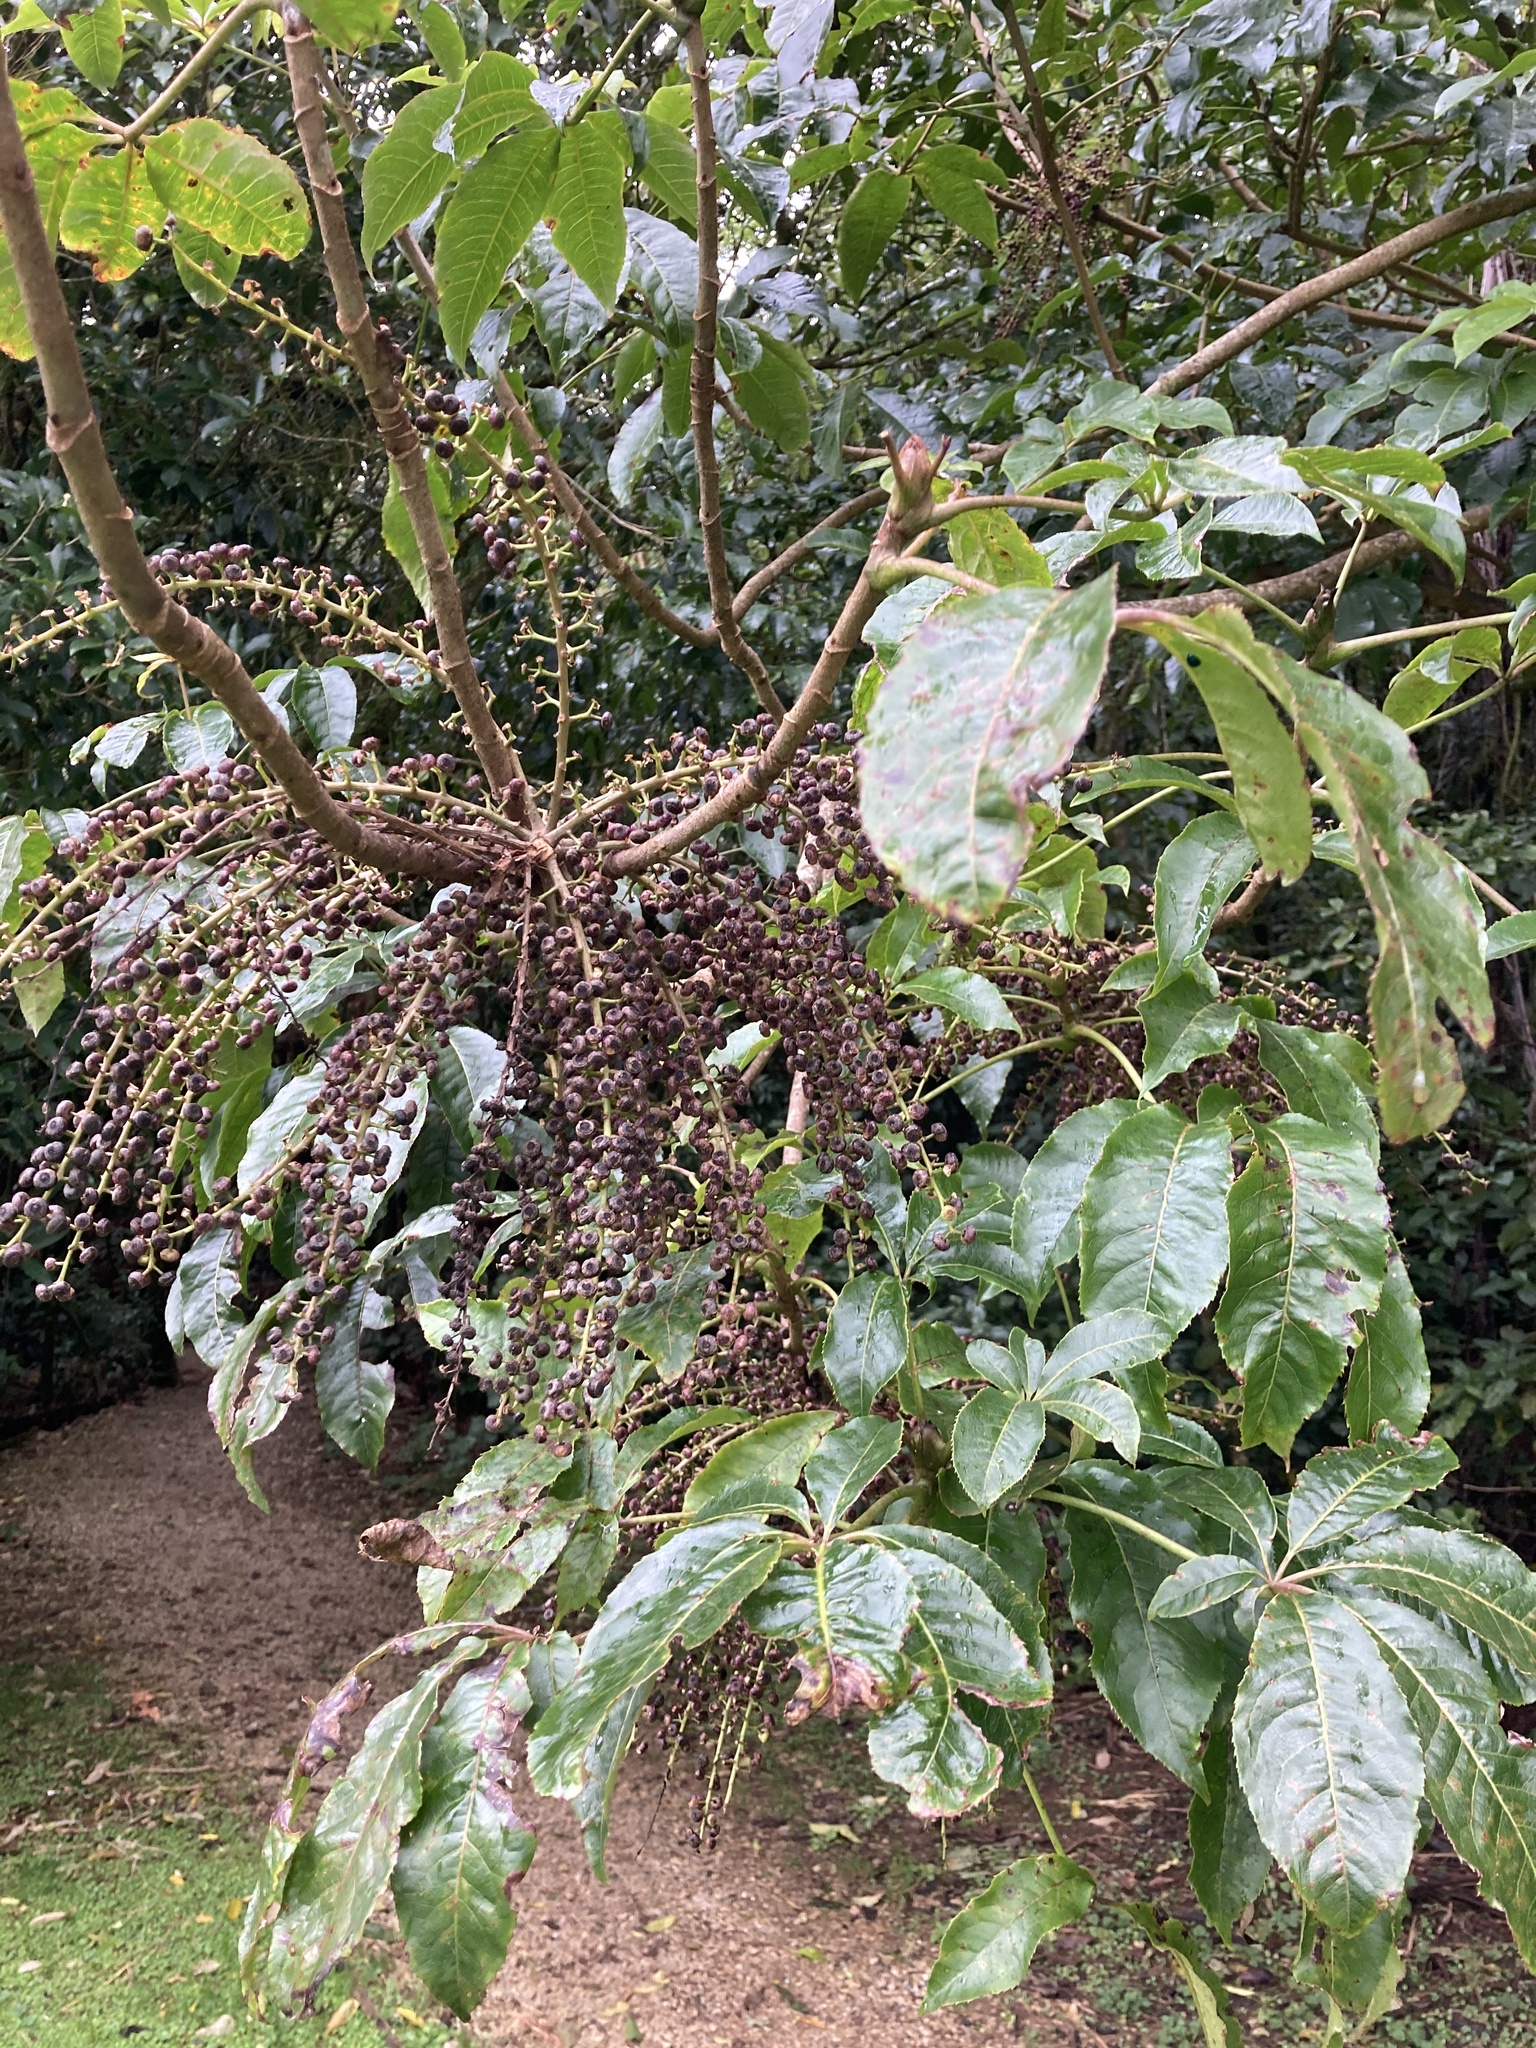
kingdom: Plantae
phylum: Tracheophyta
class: Magnoliopsida
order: Apiales
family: Araliaceae
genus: Schefflera
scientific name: Schefflera digitata
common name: Pate
